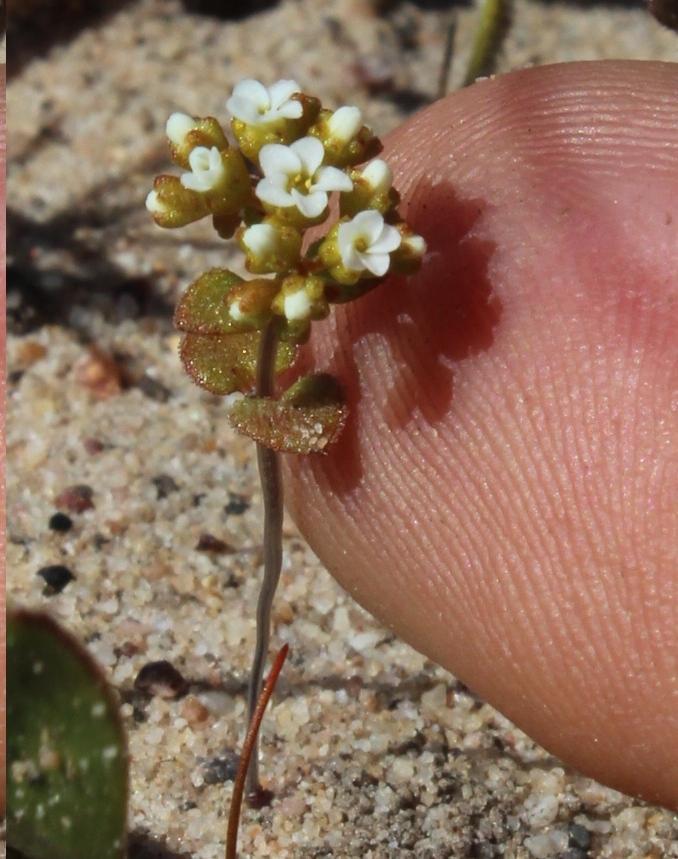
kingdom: Plantae
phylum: Tracheophyta
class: Magnoliopsida
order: Saxifragales
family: Crassulaceae
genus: Crassula
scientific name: Crassula filiformis
